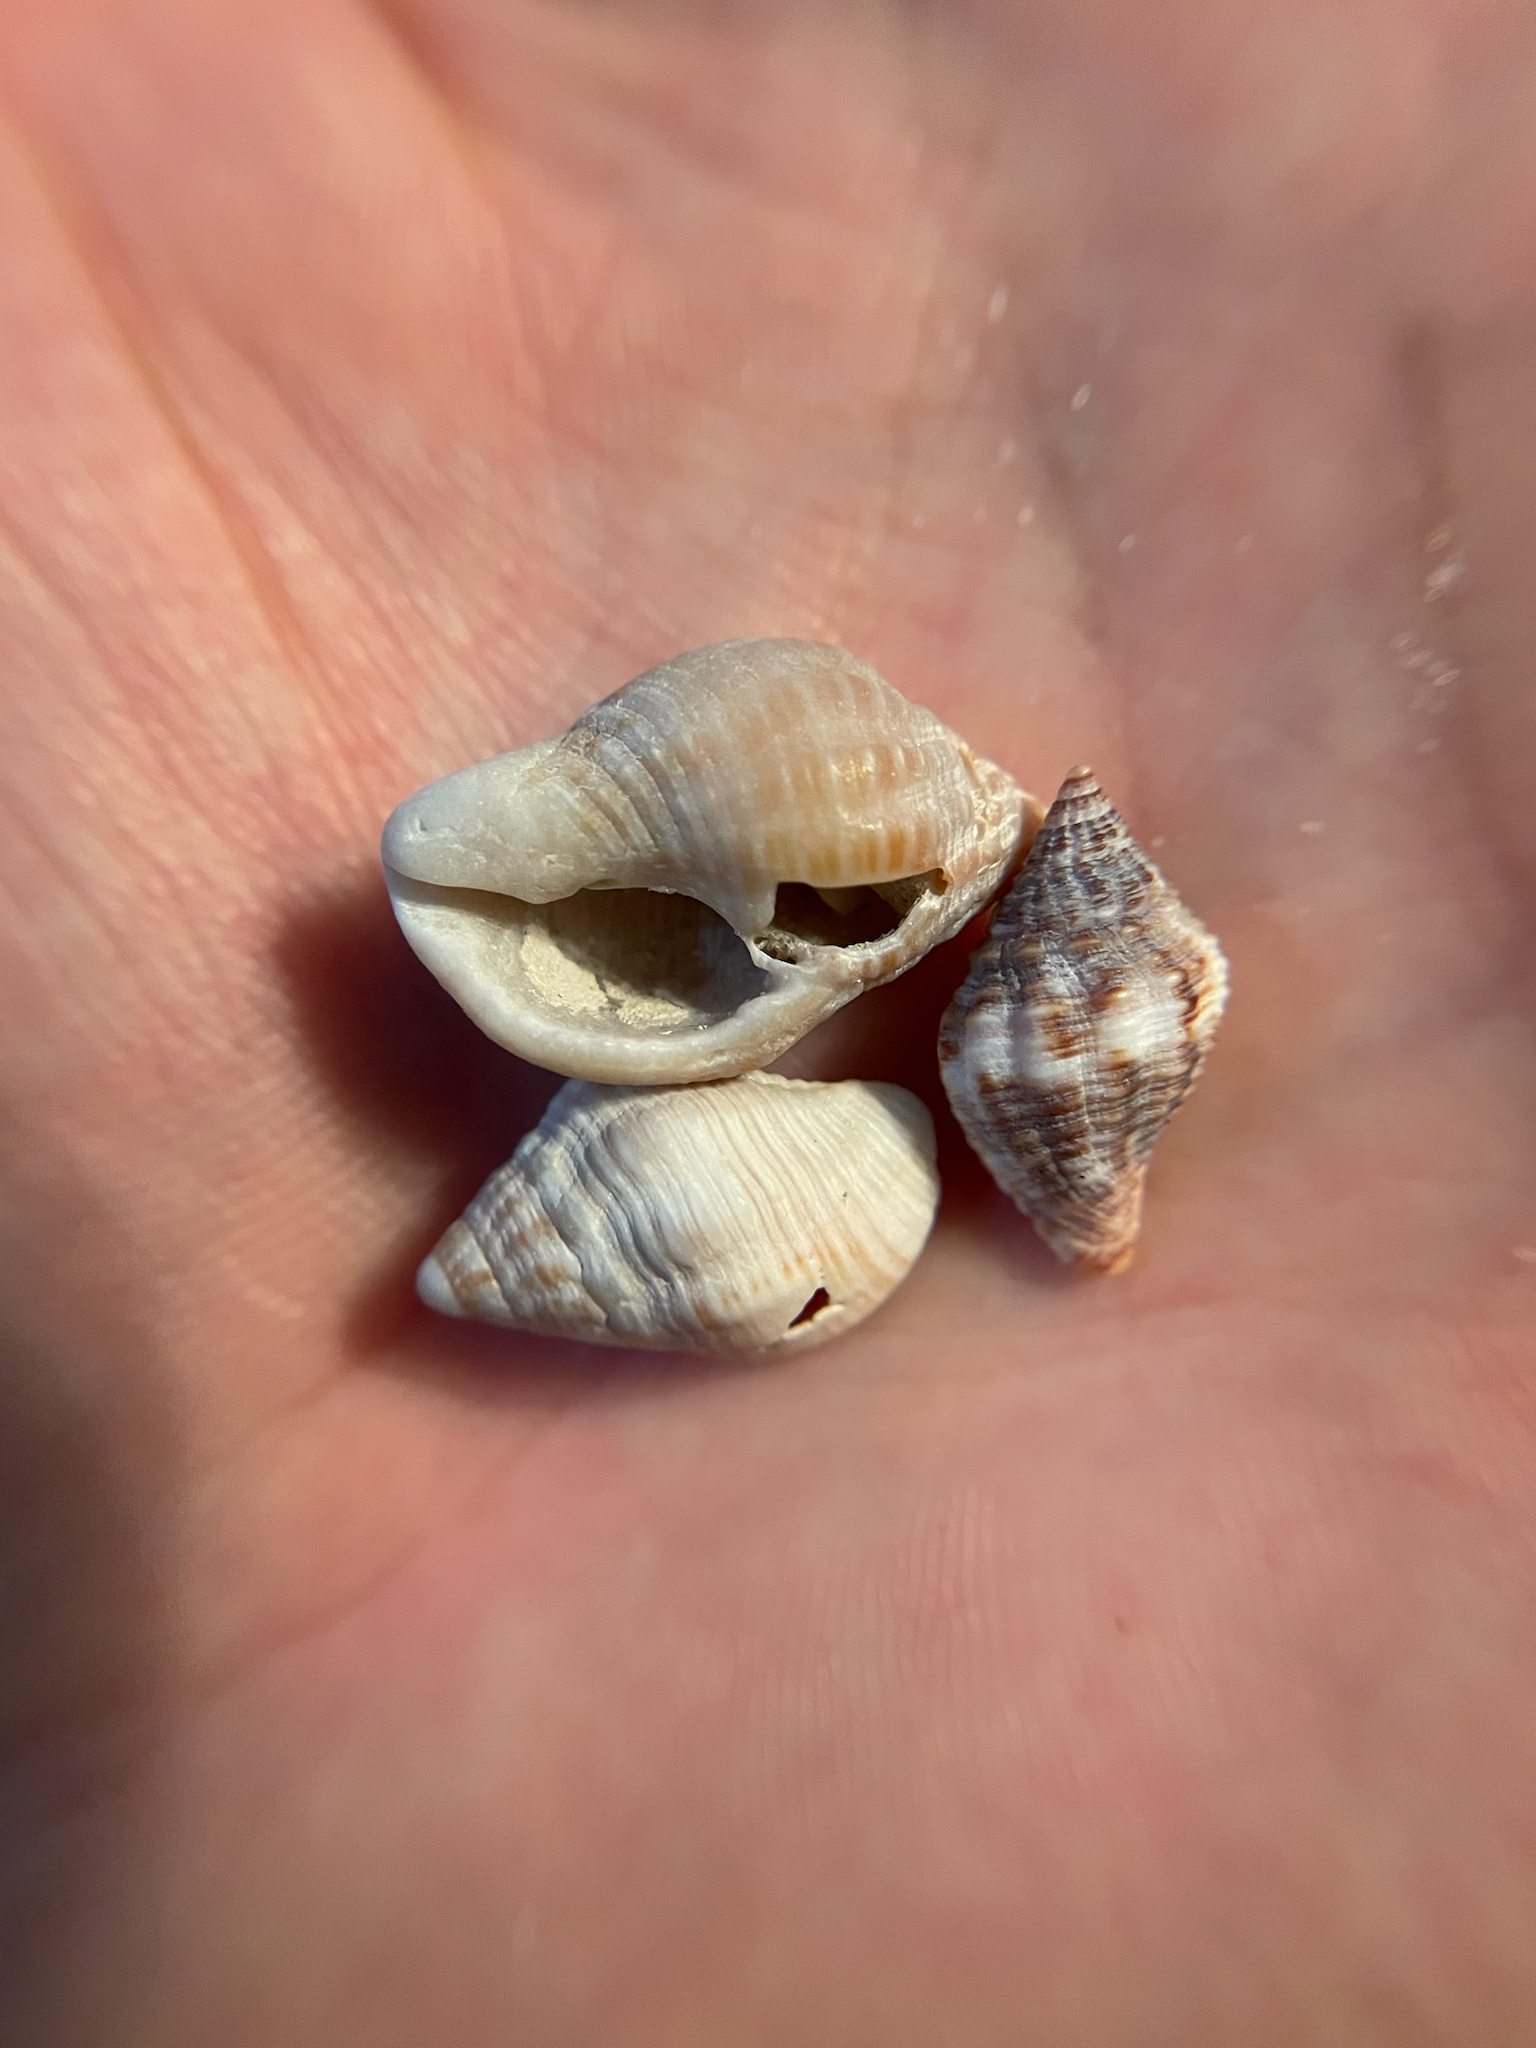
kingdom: Animalia
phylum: Mollusca
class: Gastropoda
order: Neogastropoda
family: Pisaniidae
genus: Gemophos
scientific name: Gemophos tinctus
